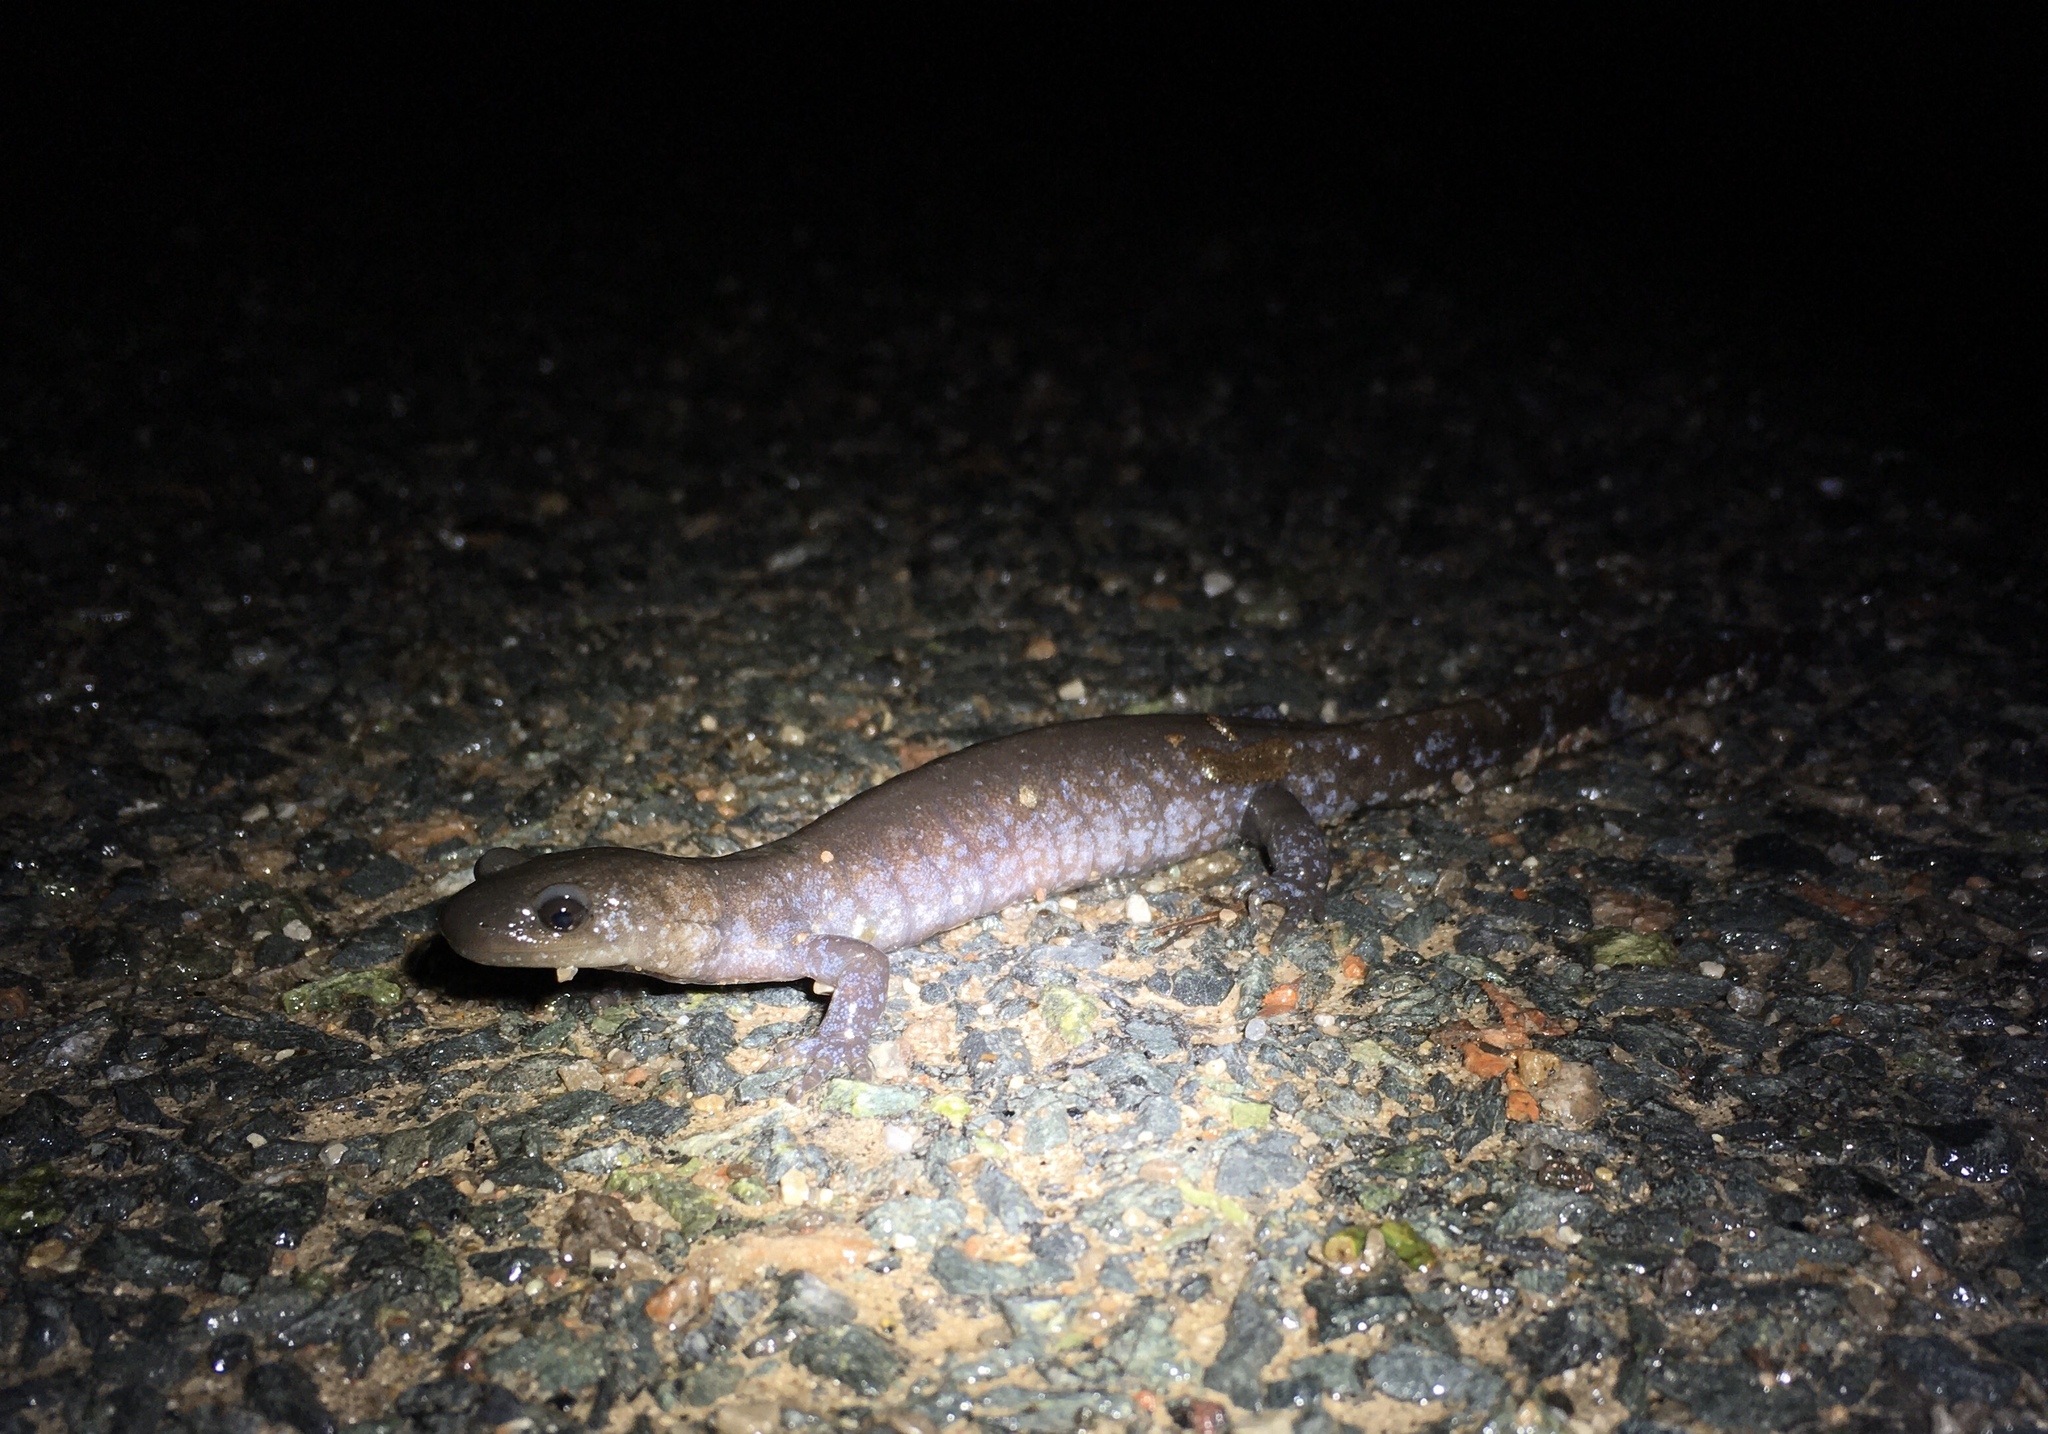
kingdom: Animalia
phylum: Chordata
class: Amphibia
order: Caudata
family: Ambystomatidae
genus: Ambystoma
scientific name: Ambystoma laterale
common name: Blue-spotted salamander
